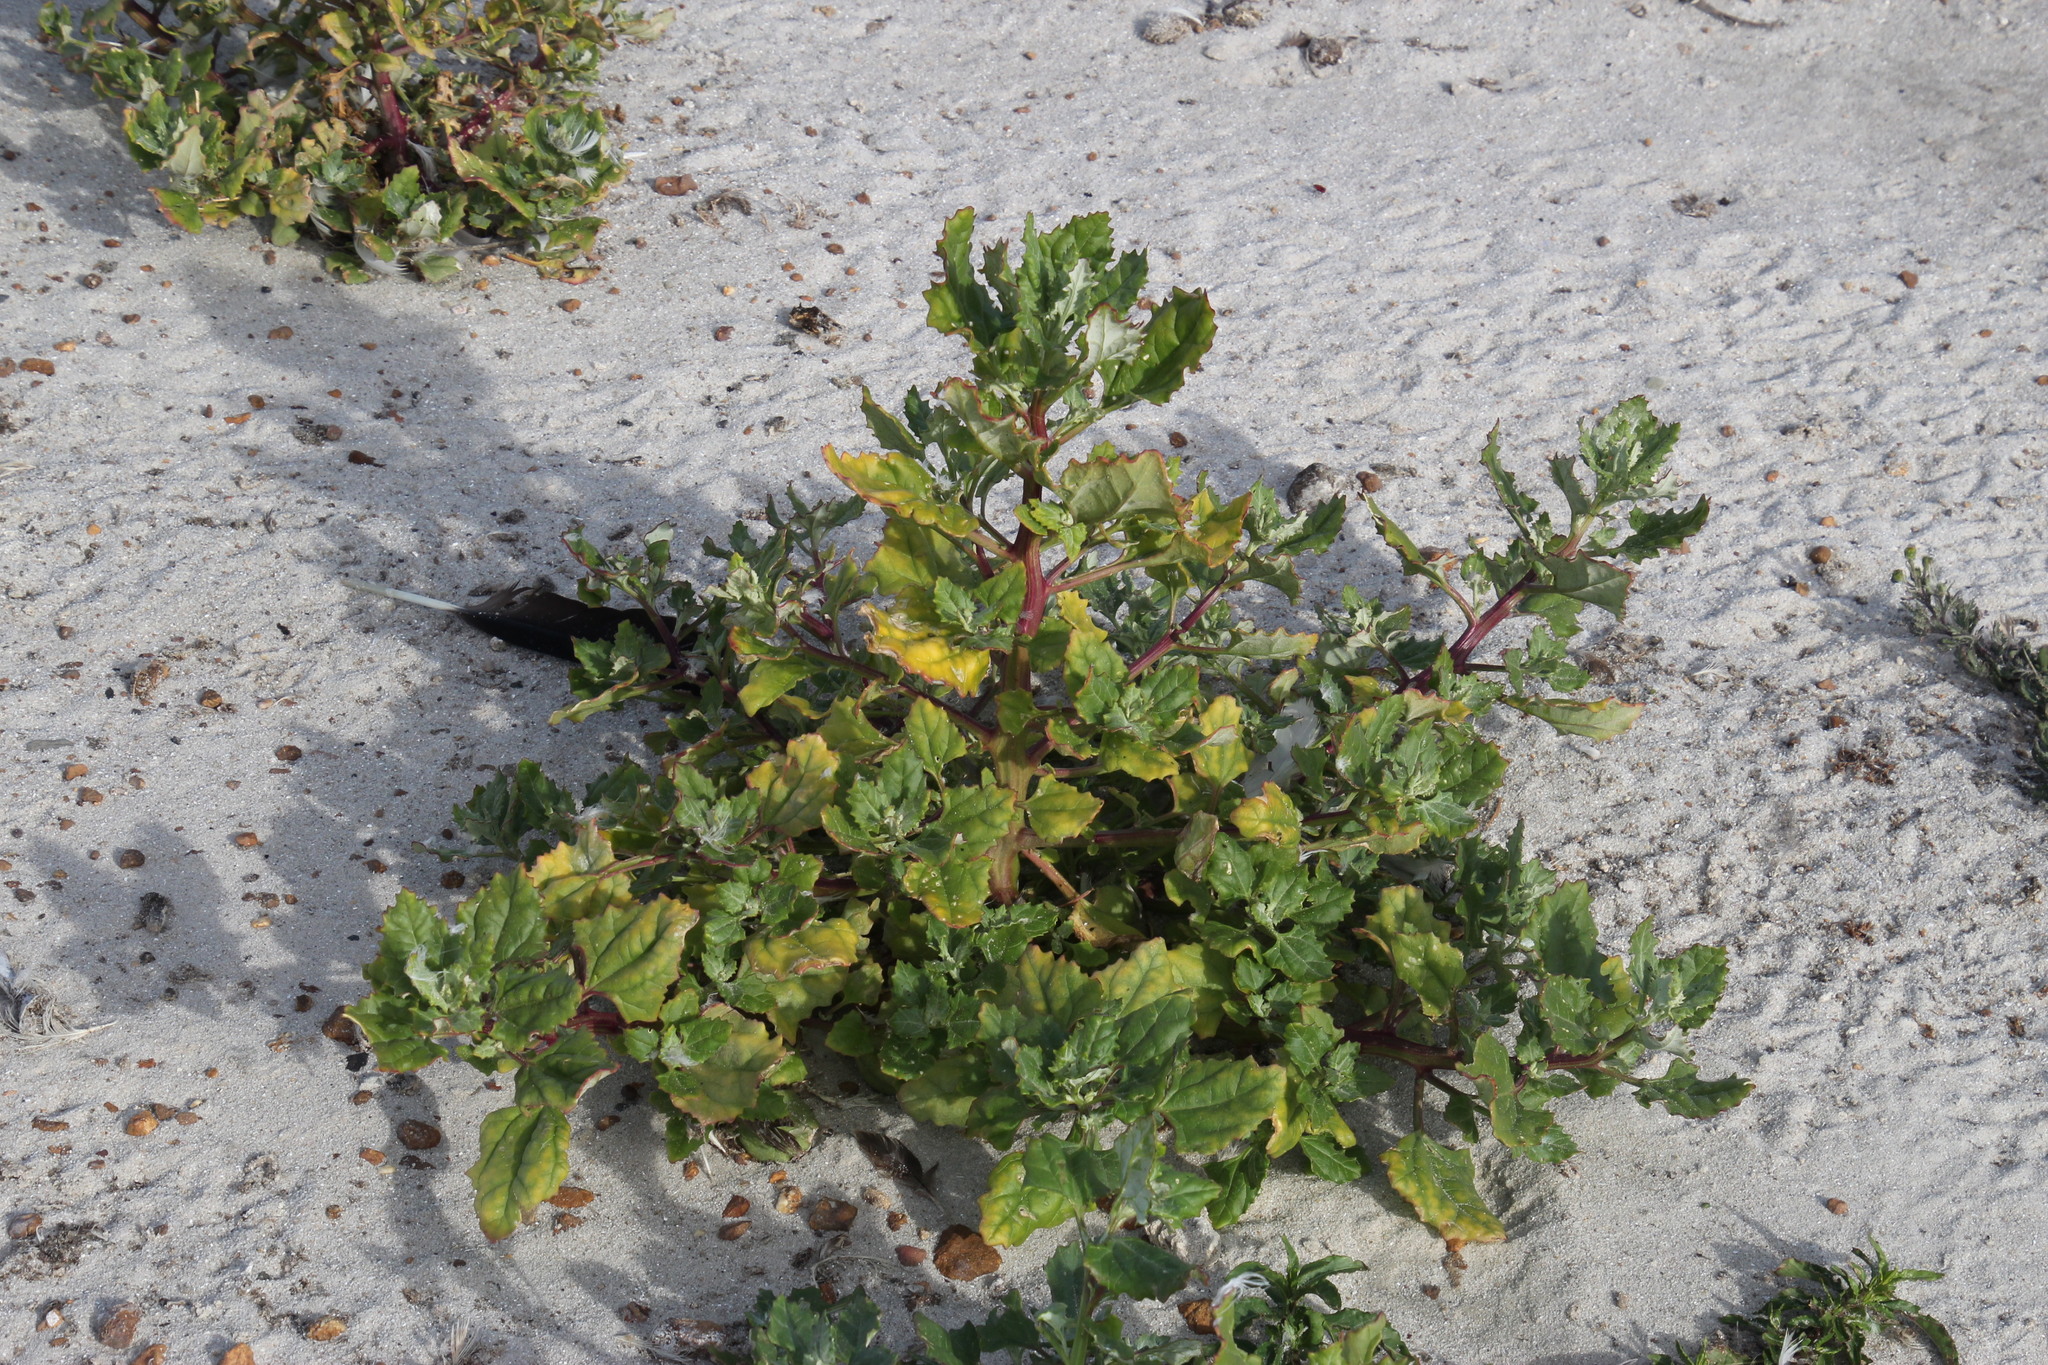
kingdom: Plantae
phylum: Tracheophyta
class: Magnoliopsida
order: Caryophyllales
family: Amaranthaceae
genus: Chenopodiastrum
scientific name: Chenopodiastrum murale
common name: Sowbane
